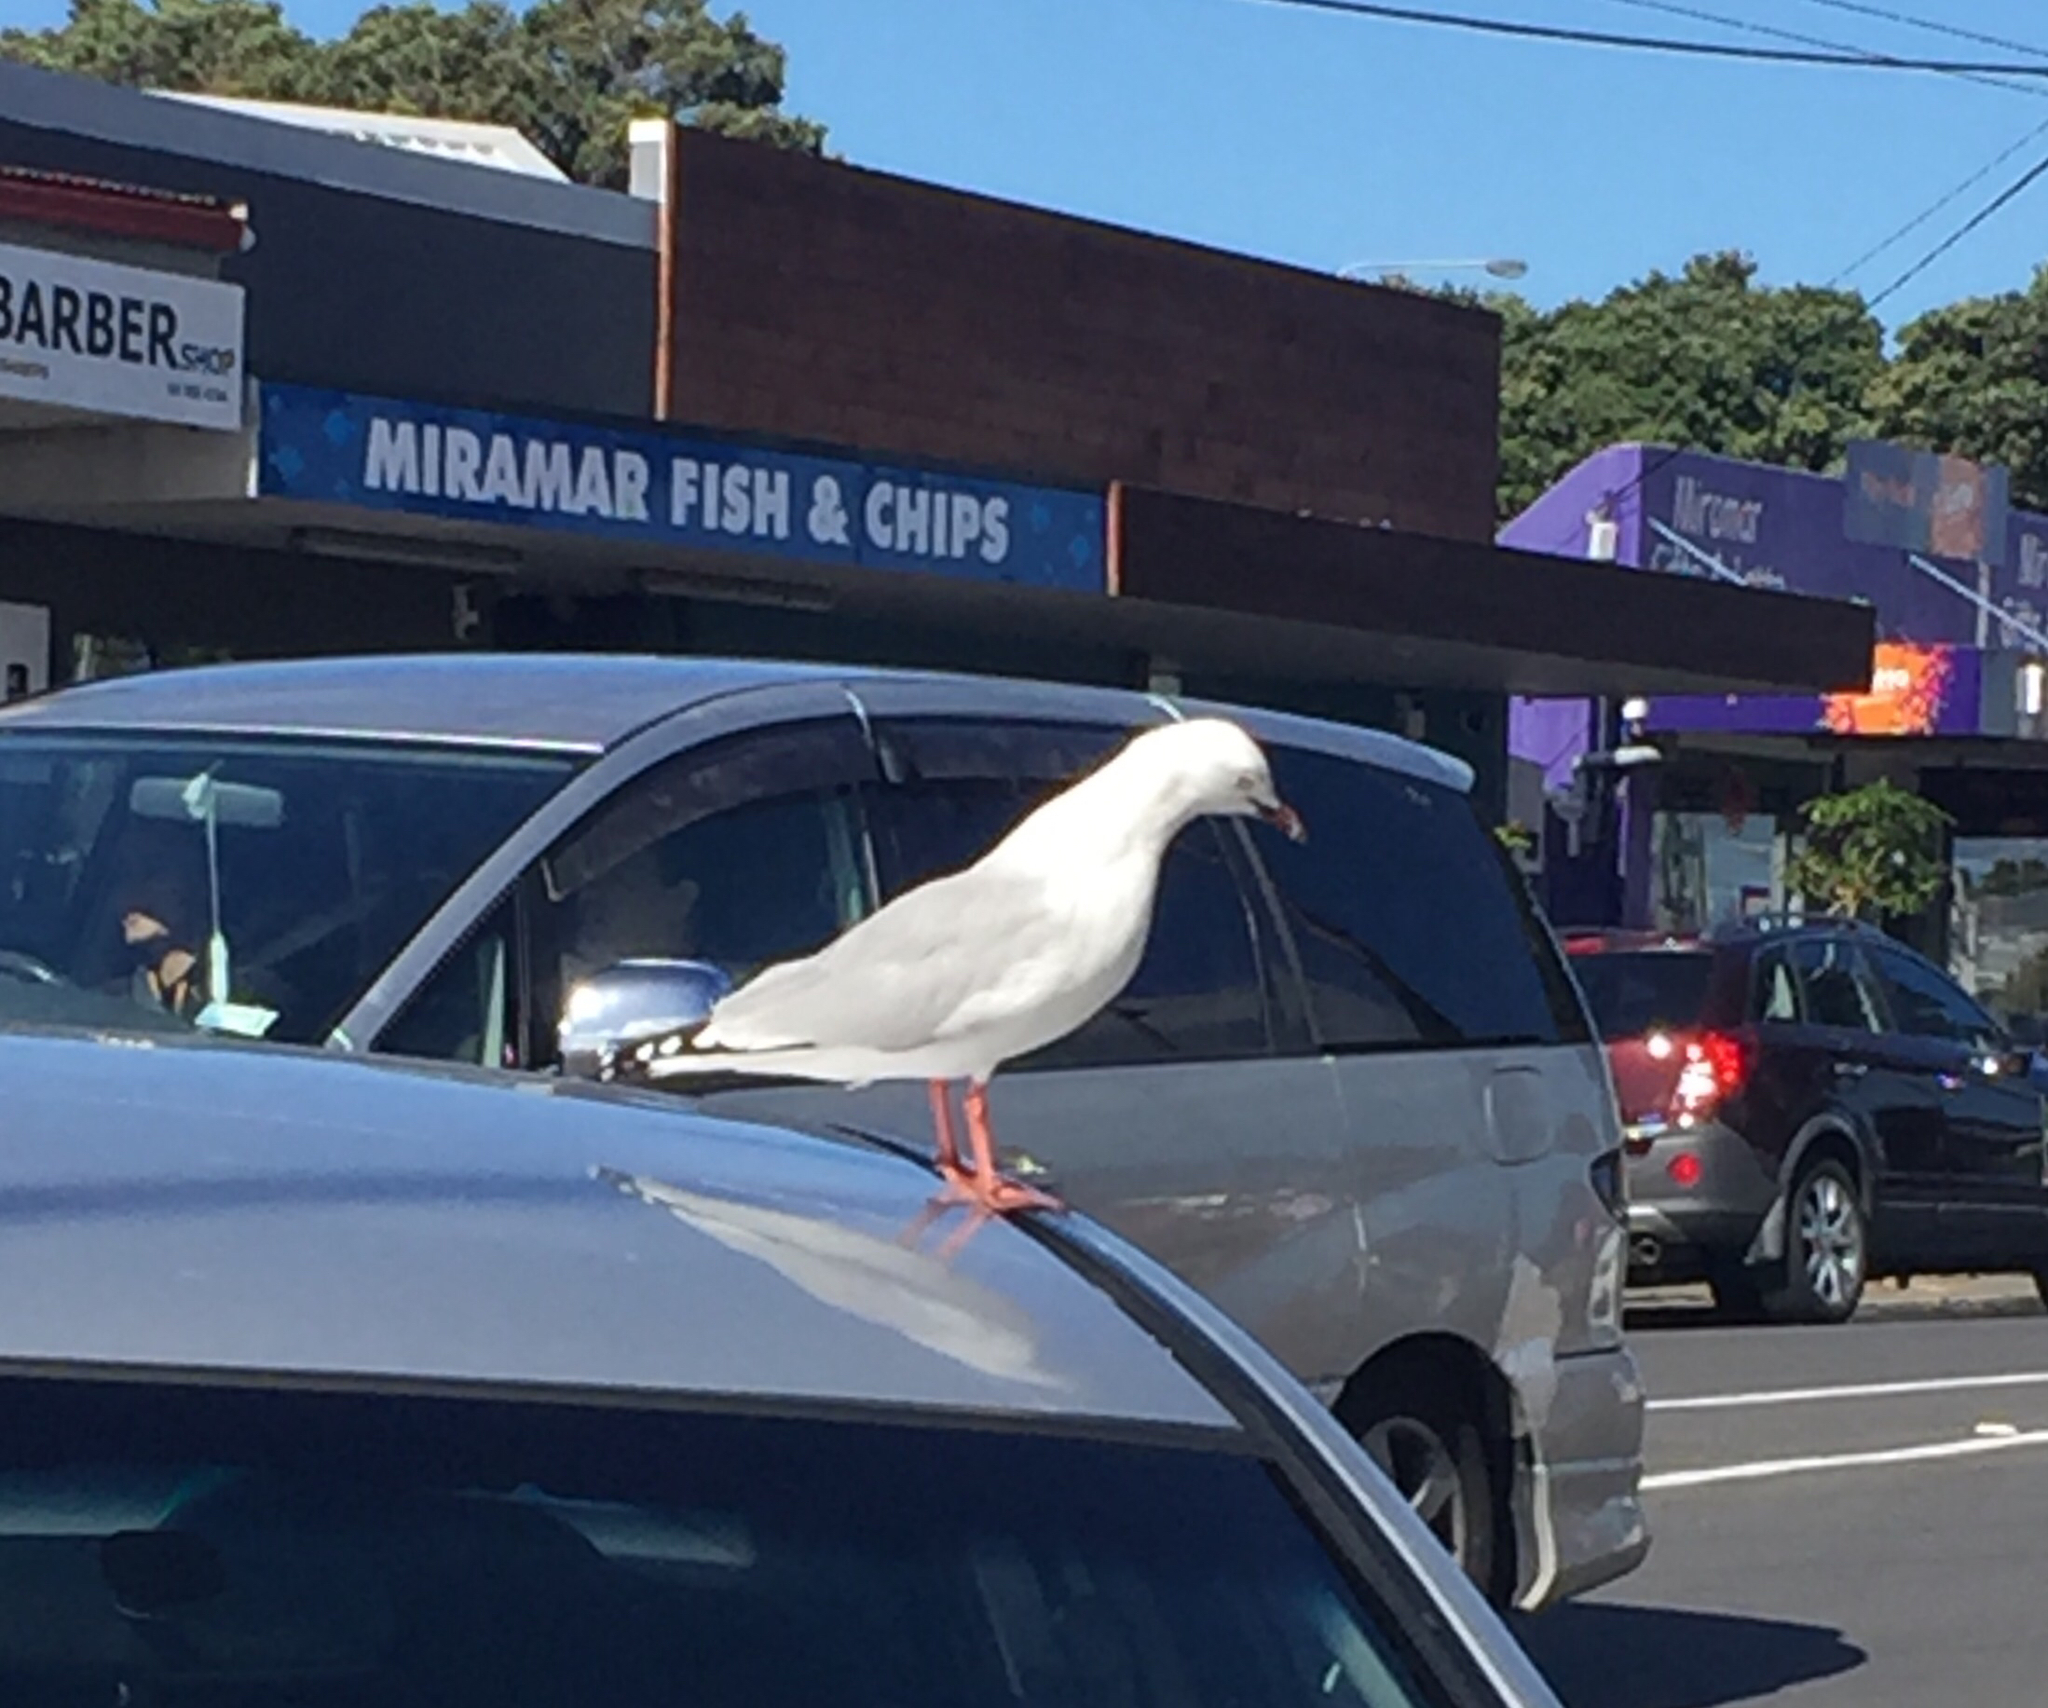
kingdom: Animalia
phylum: Chordata
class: Aves
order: Charadriiformes
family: Laridae
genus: Chroicocephalus
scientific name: Chroicocephalus novaehollandiae
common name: Silver gull
